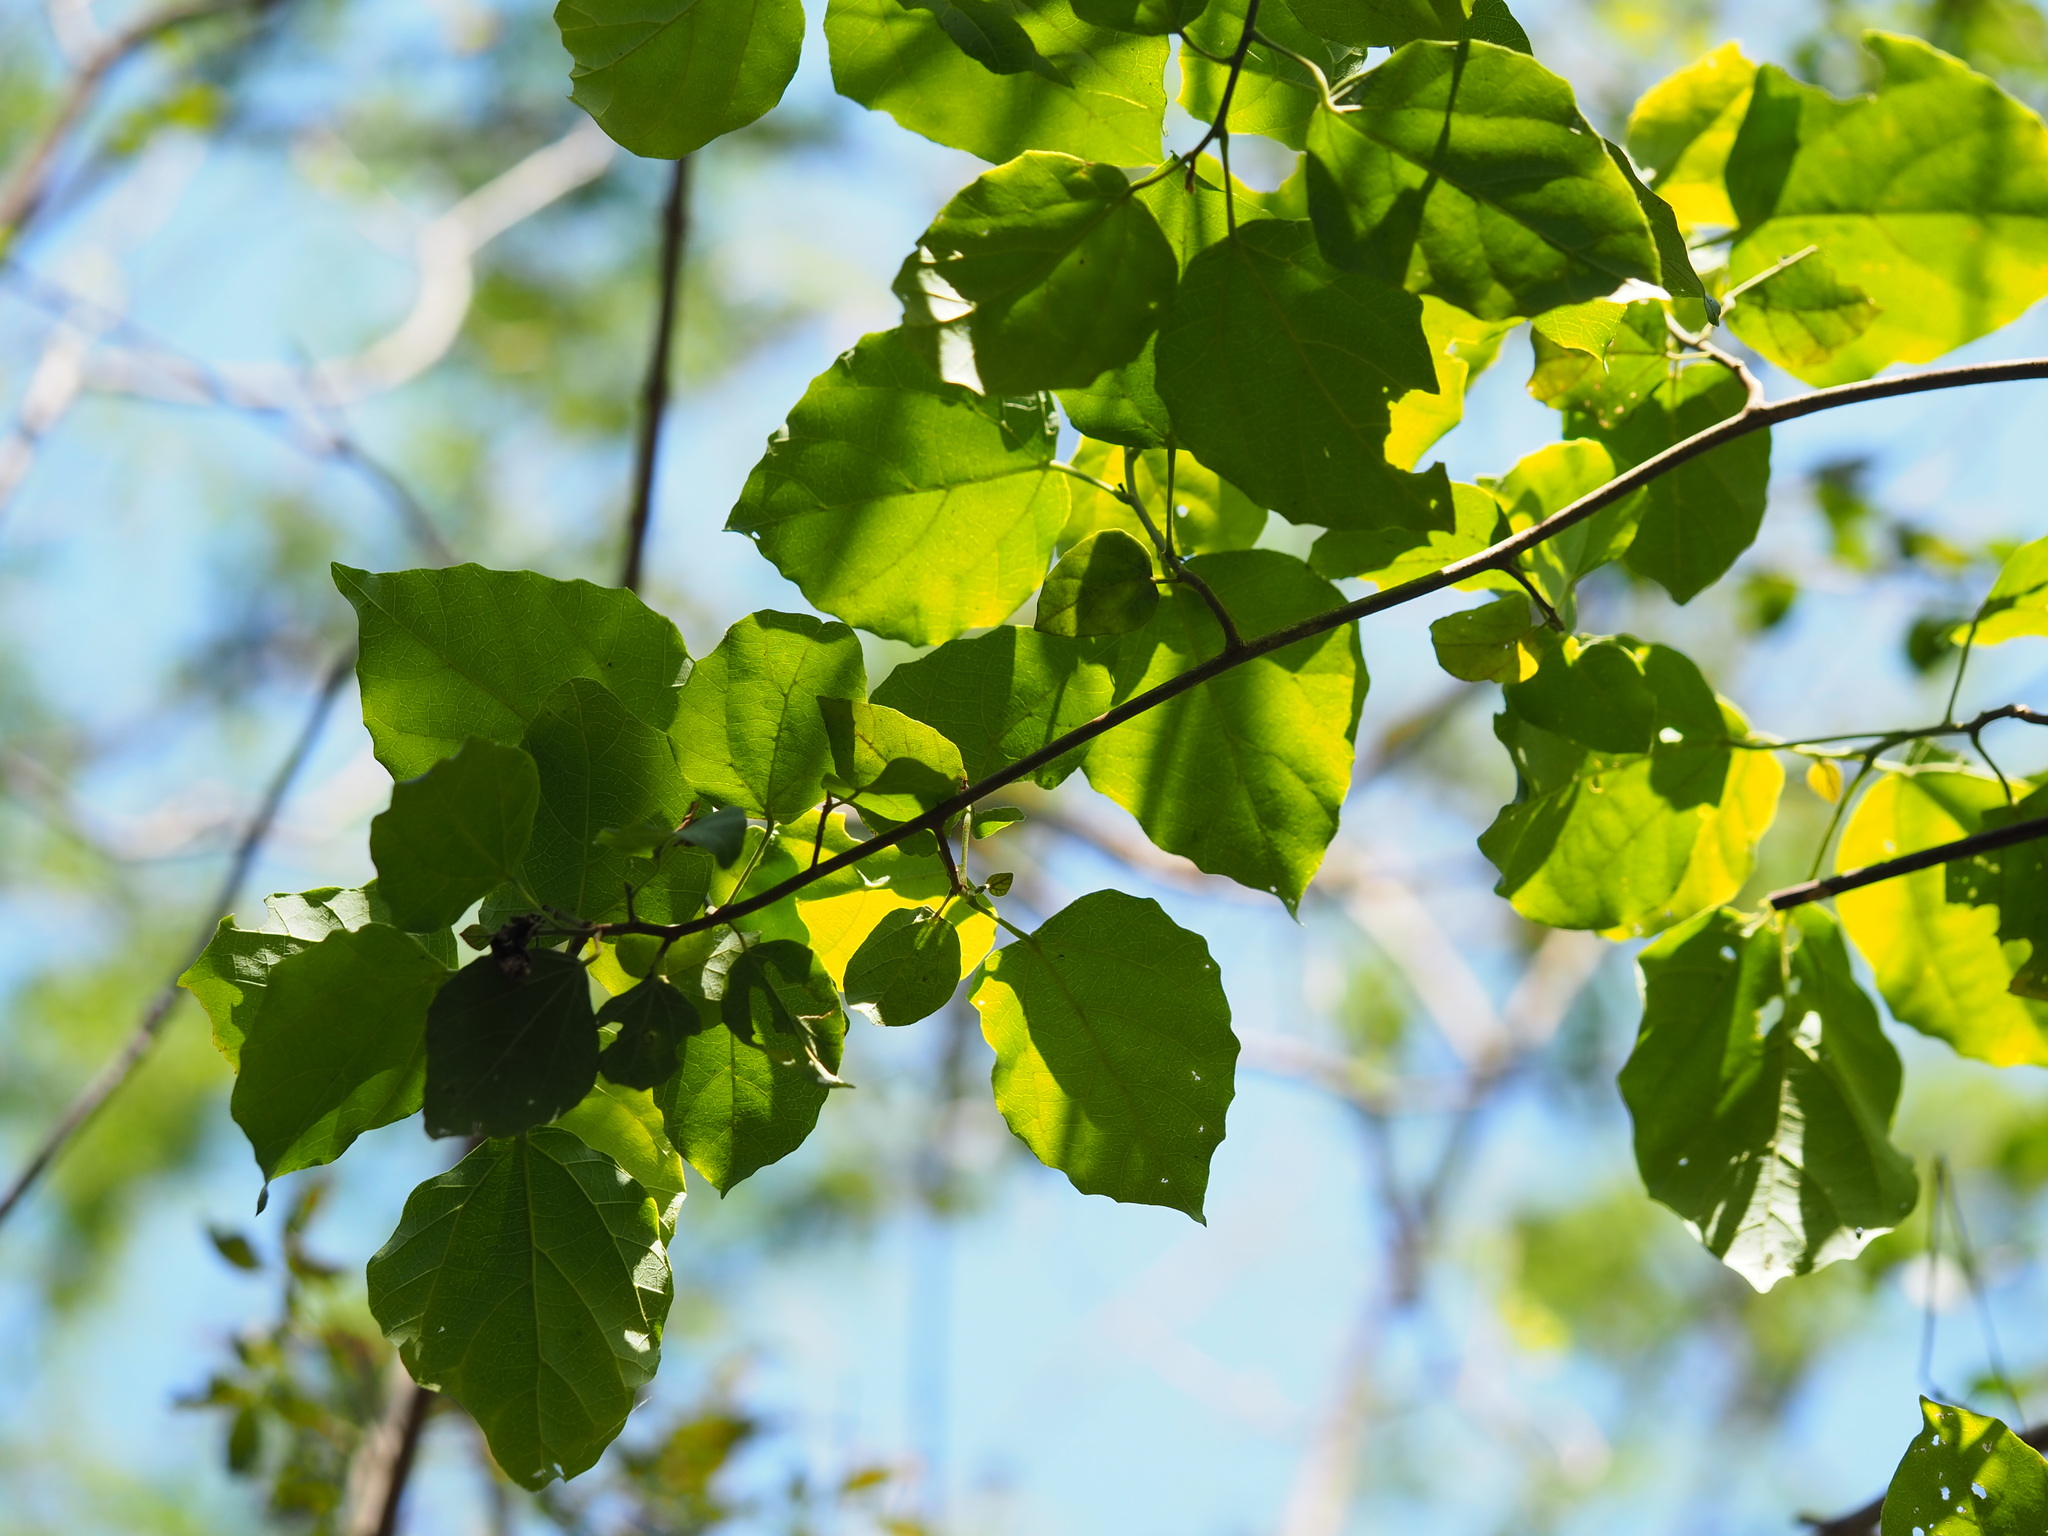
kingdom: Plantae
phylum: Tracheophyta
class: Magnoliopsida
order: Malpighiales
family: Euphorbiaceae
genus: Mallotus
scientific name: Mallotus repandus
